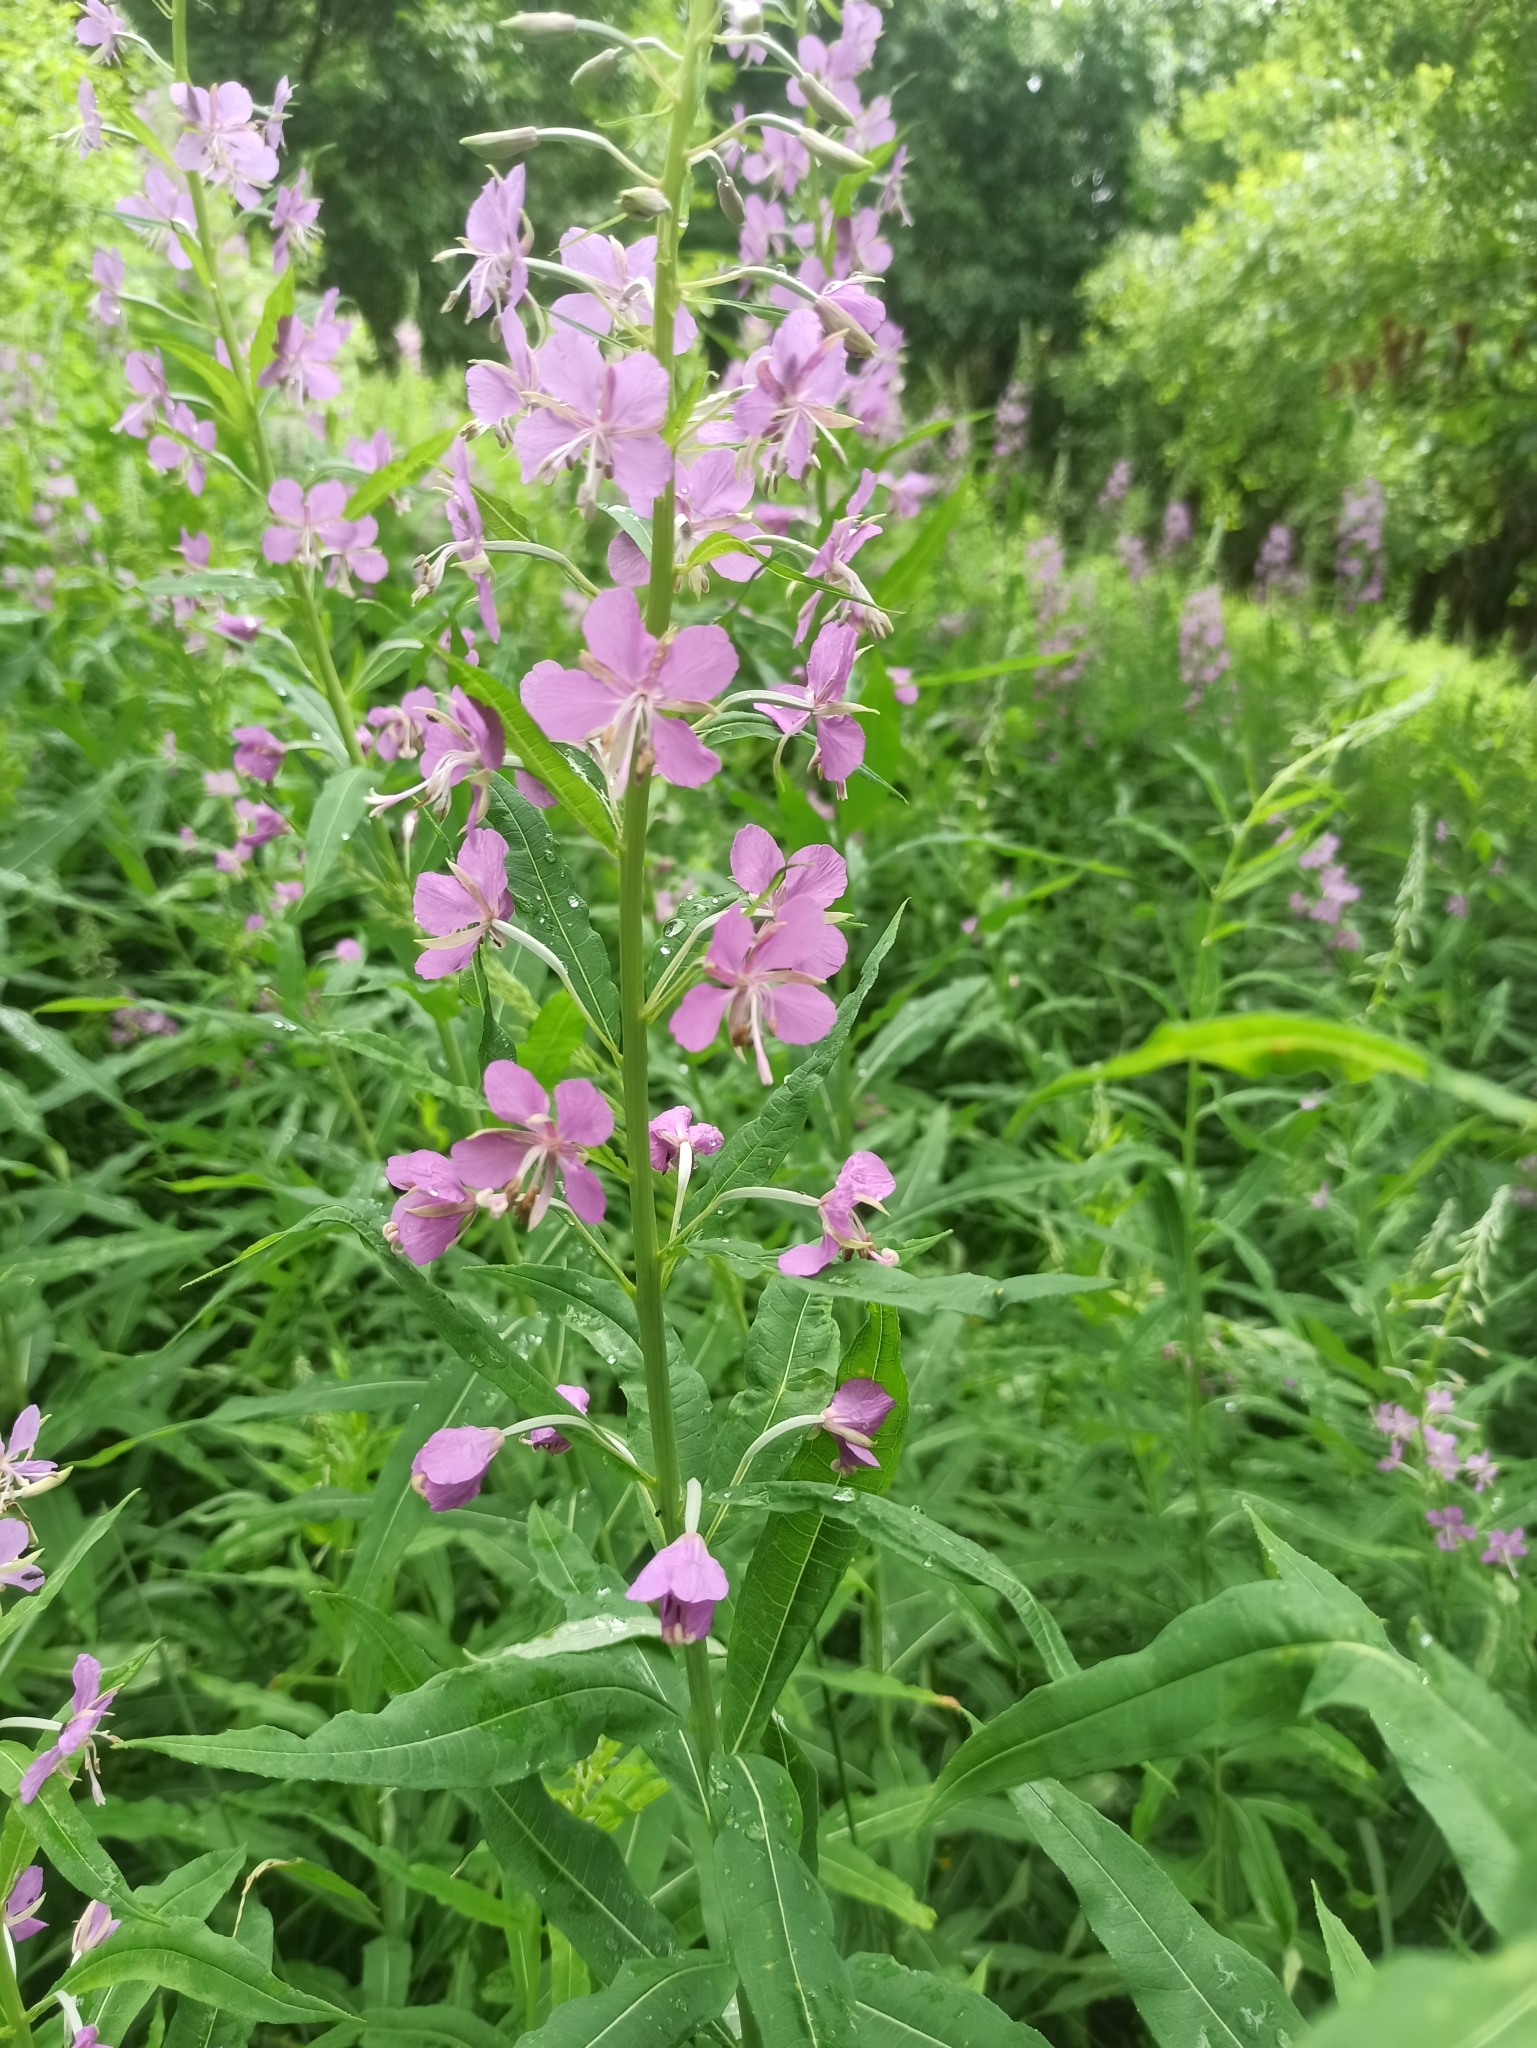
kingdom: Plantae
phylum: Tracheophyta
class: Magnoliopsida
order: Myrtales
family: Onagraceae
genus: Chamaenerion
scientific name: Chamaenerion angustifolium
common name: Fireweed
